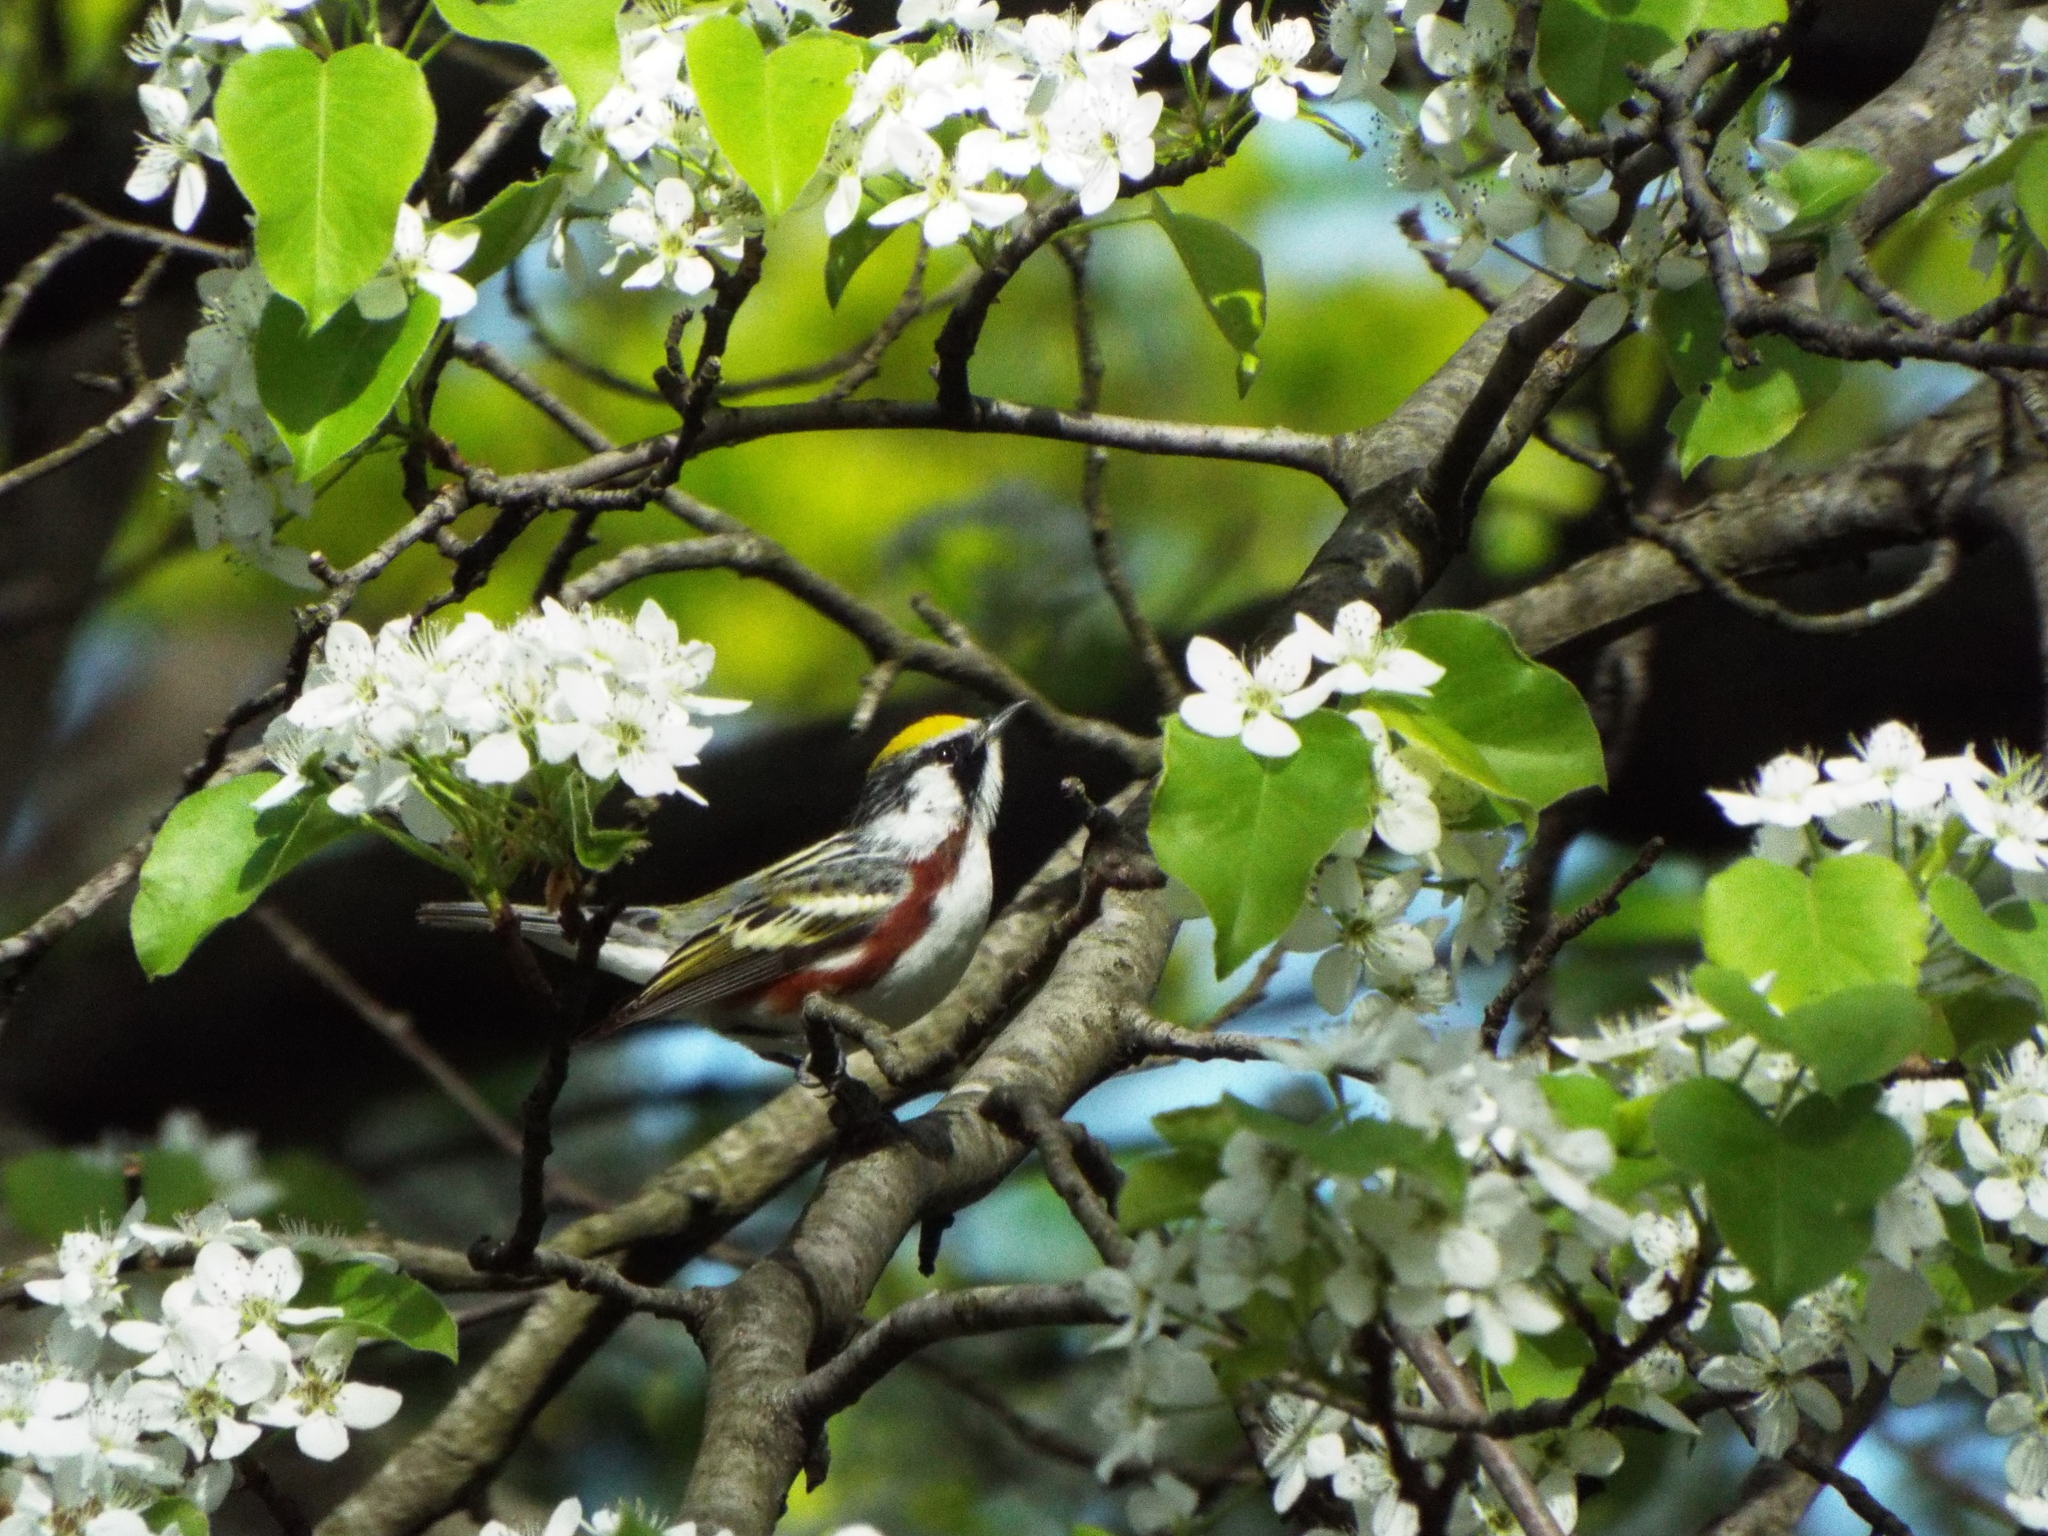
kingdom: Animalia
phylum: Chordata
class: Aves
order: Passeriformes
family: Parulidae
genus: Setophaga
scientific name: Setophaga pensylvanica
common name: Chestnut-sided warbler
